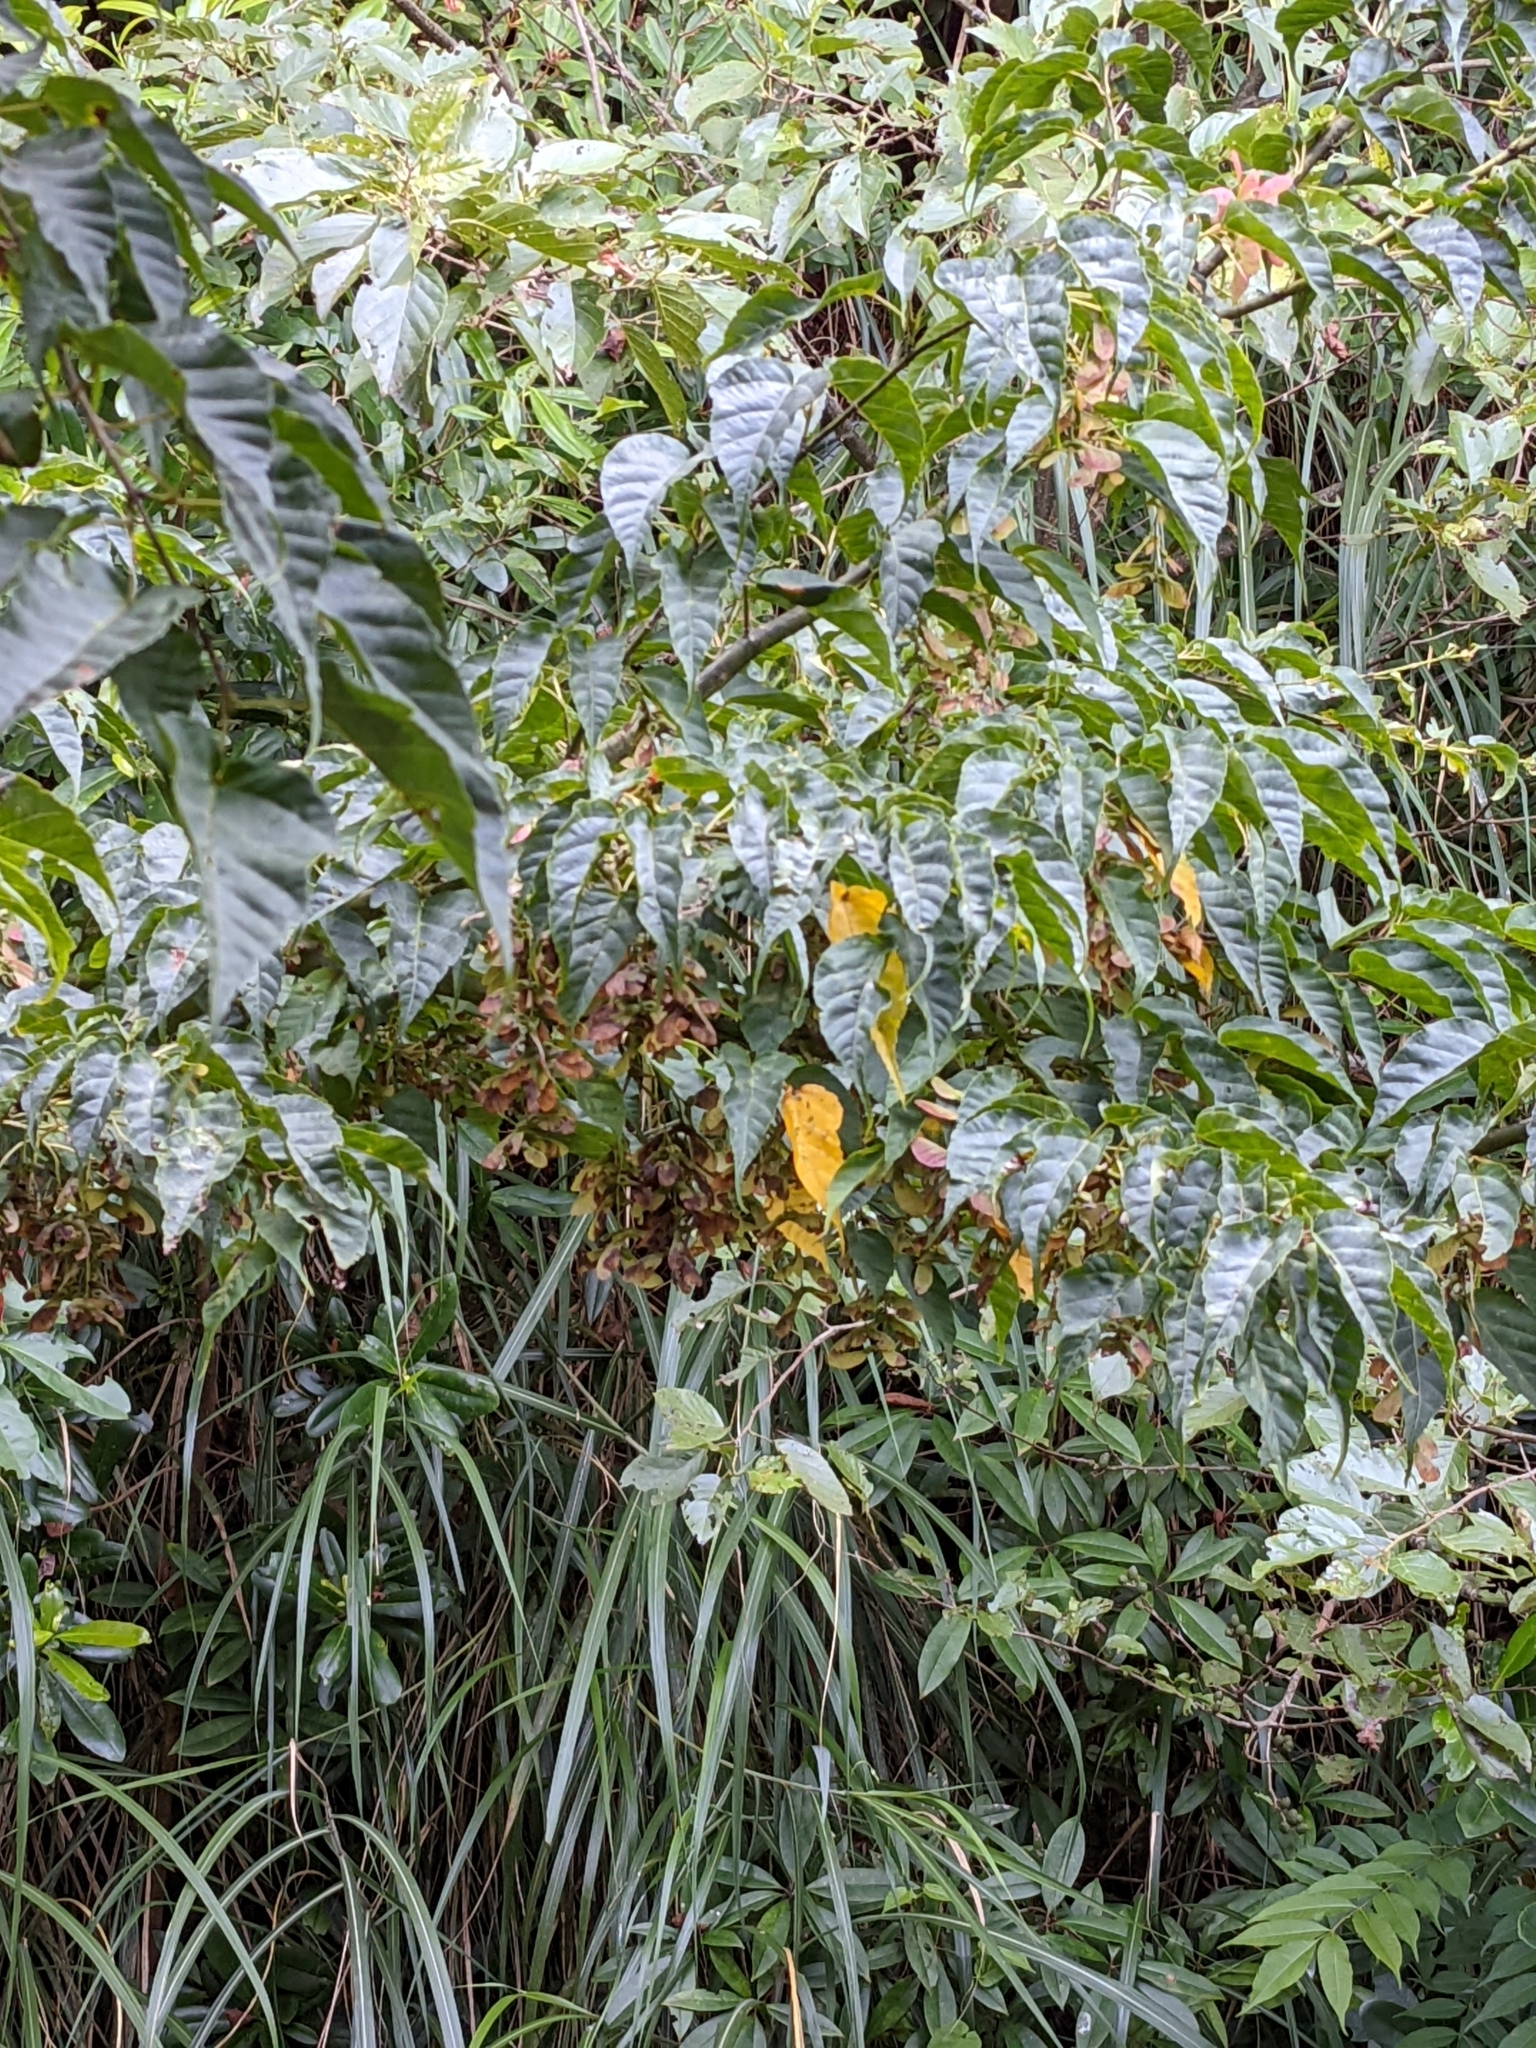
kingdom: Plantae
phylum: Tracheophyta
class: Magnoliopsida
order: Sapindales
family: Sapindaceae
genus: Acer
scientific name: Acer caudatifolium
